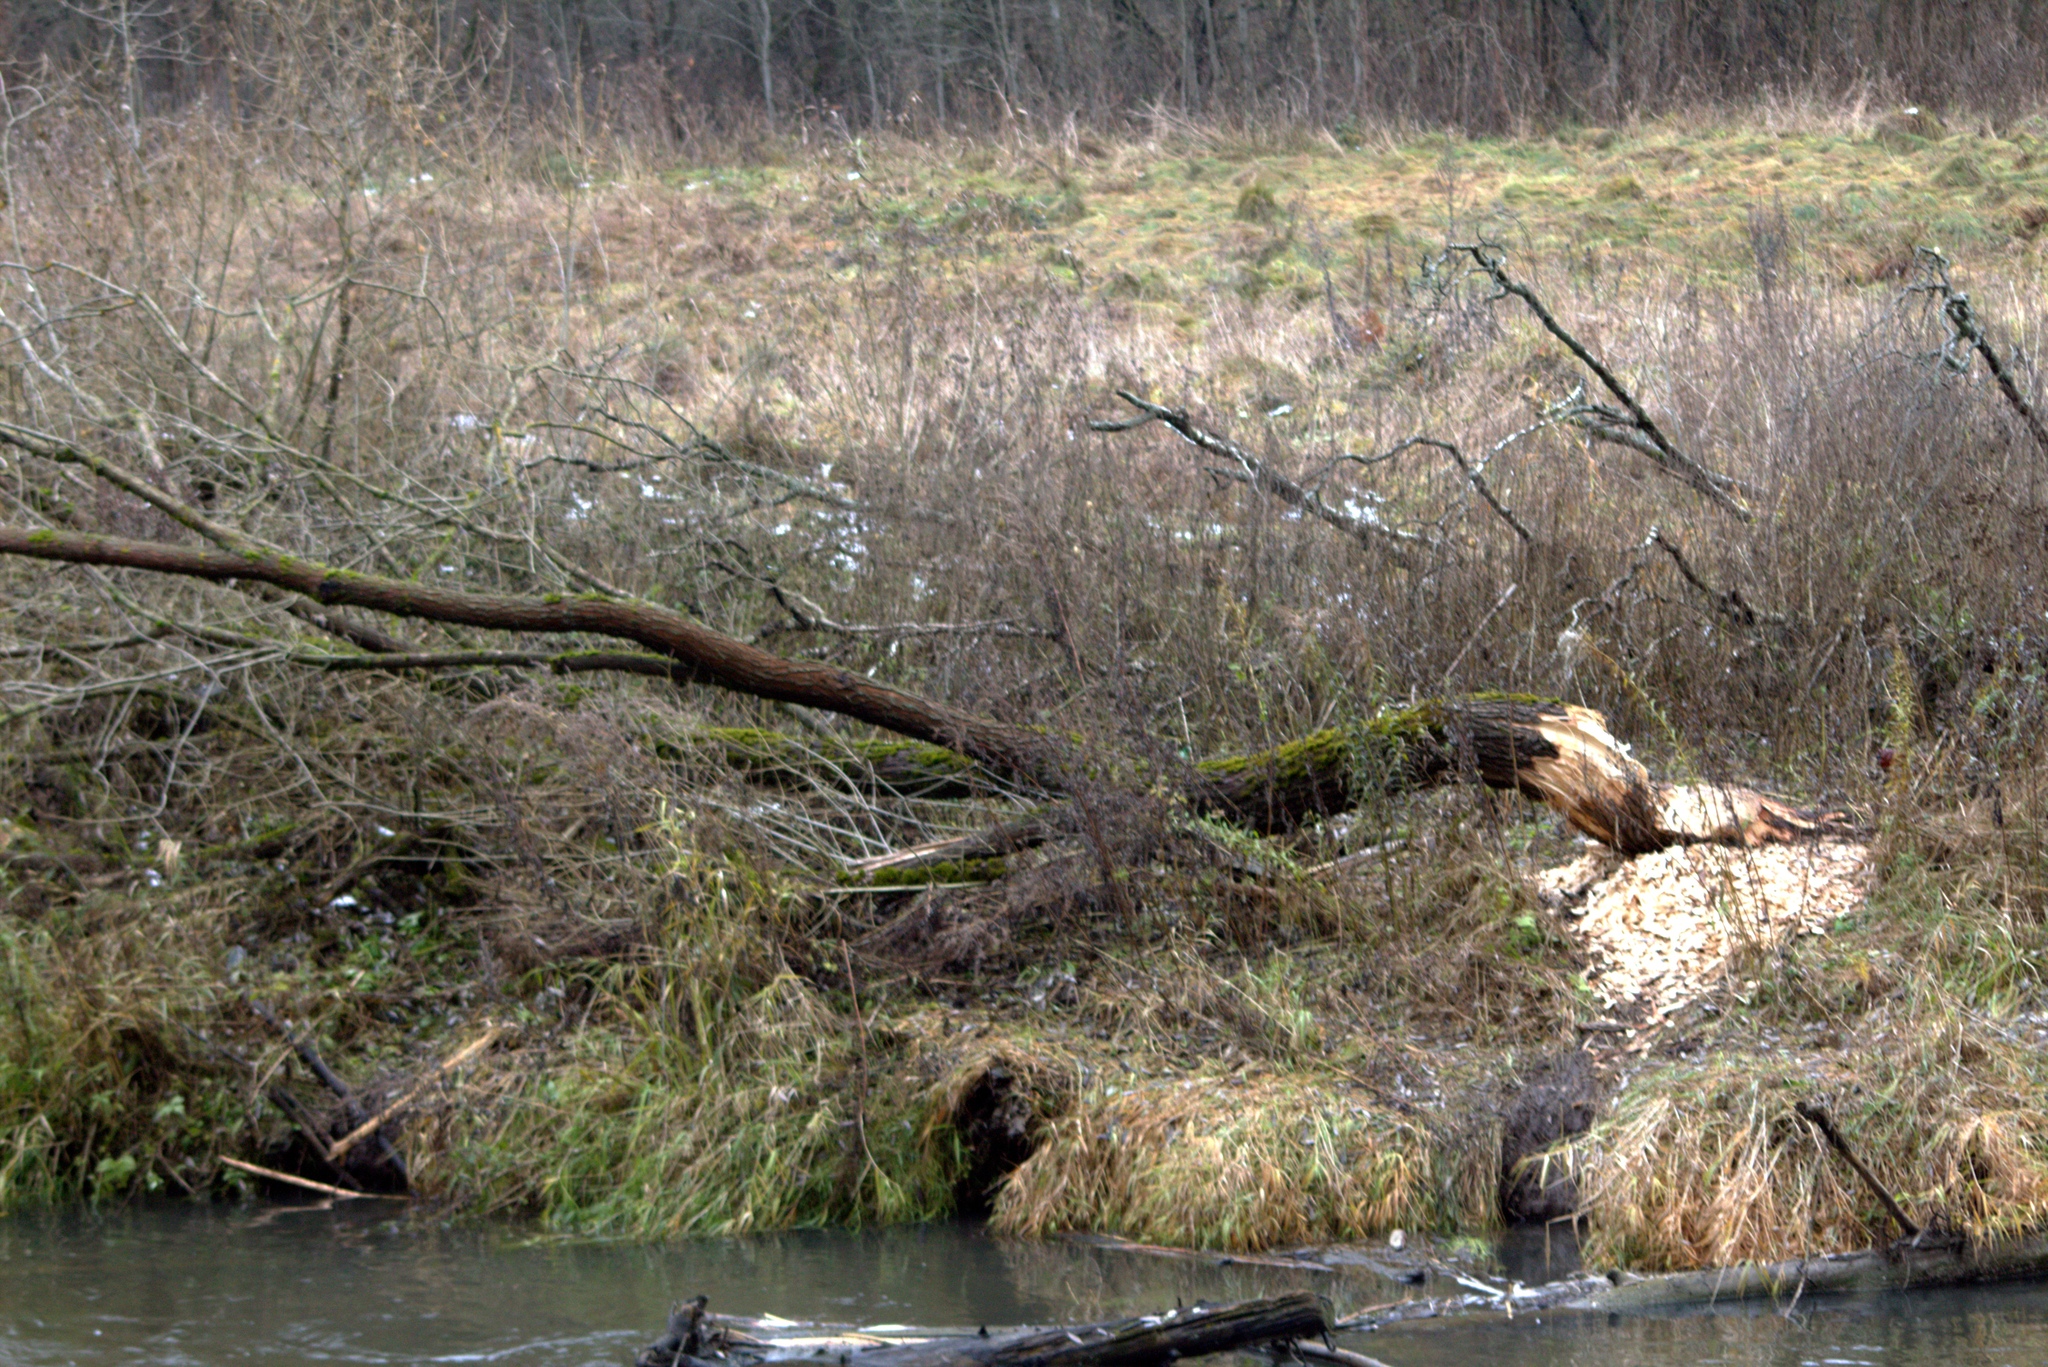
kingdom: Animalia
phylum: Chordata
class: Mammalia
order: Rodentia
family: Castoridae
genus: Castor
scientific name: Castor fiber
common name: Eurasian beaver
